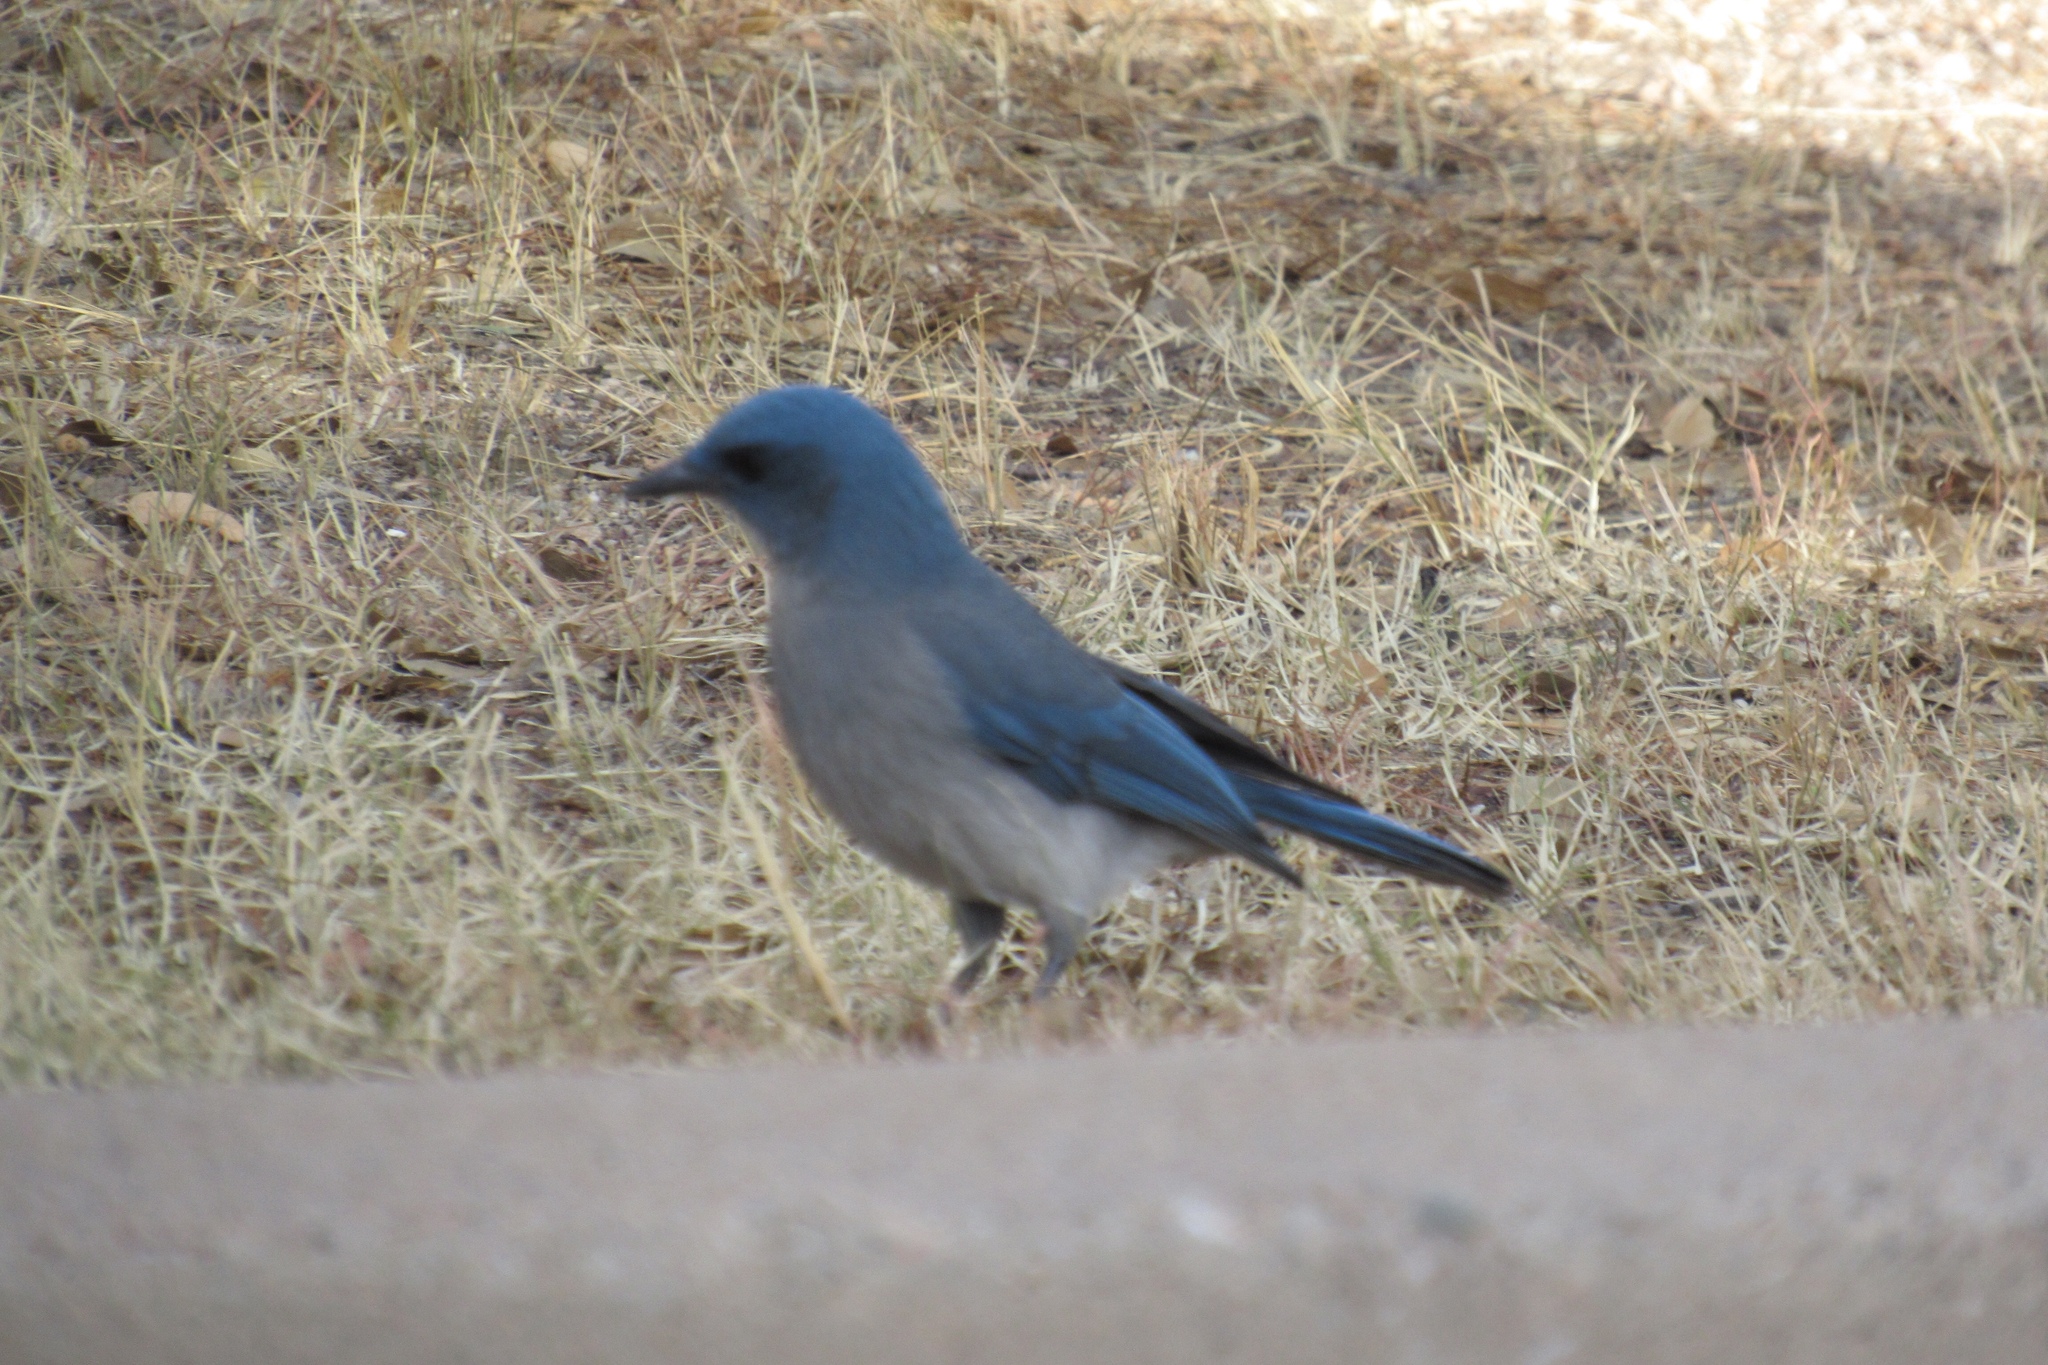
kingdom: Animalia
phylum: Chordata
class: Aves
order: Passeriformes
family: Corvidae
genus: Aphelocoma
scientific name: Aphelocoma wollweberi
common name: Mexican jay
